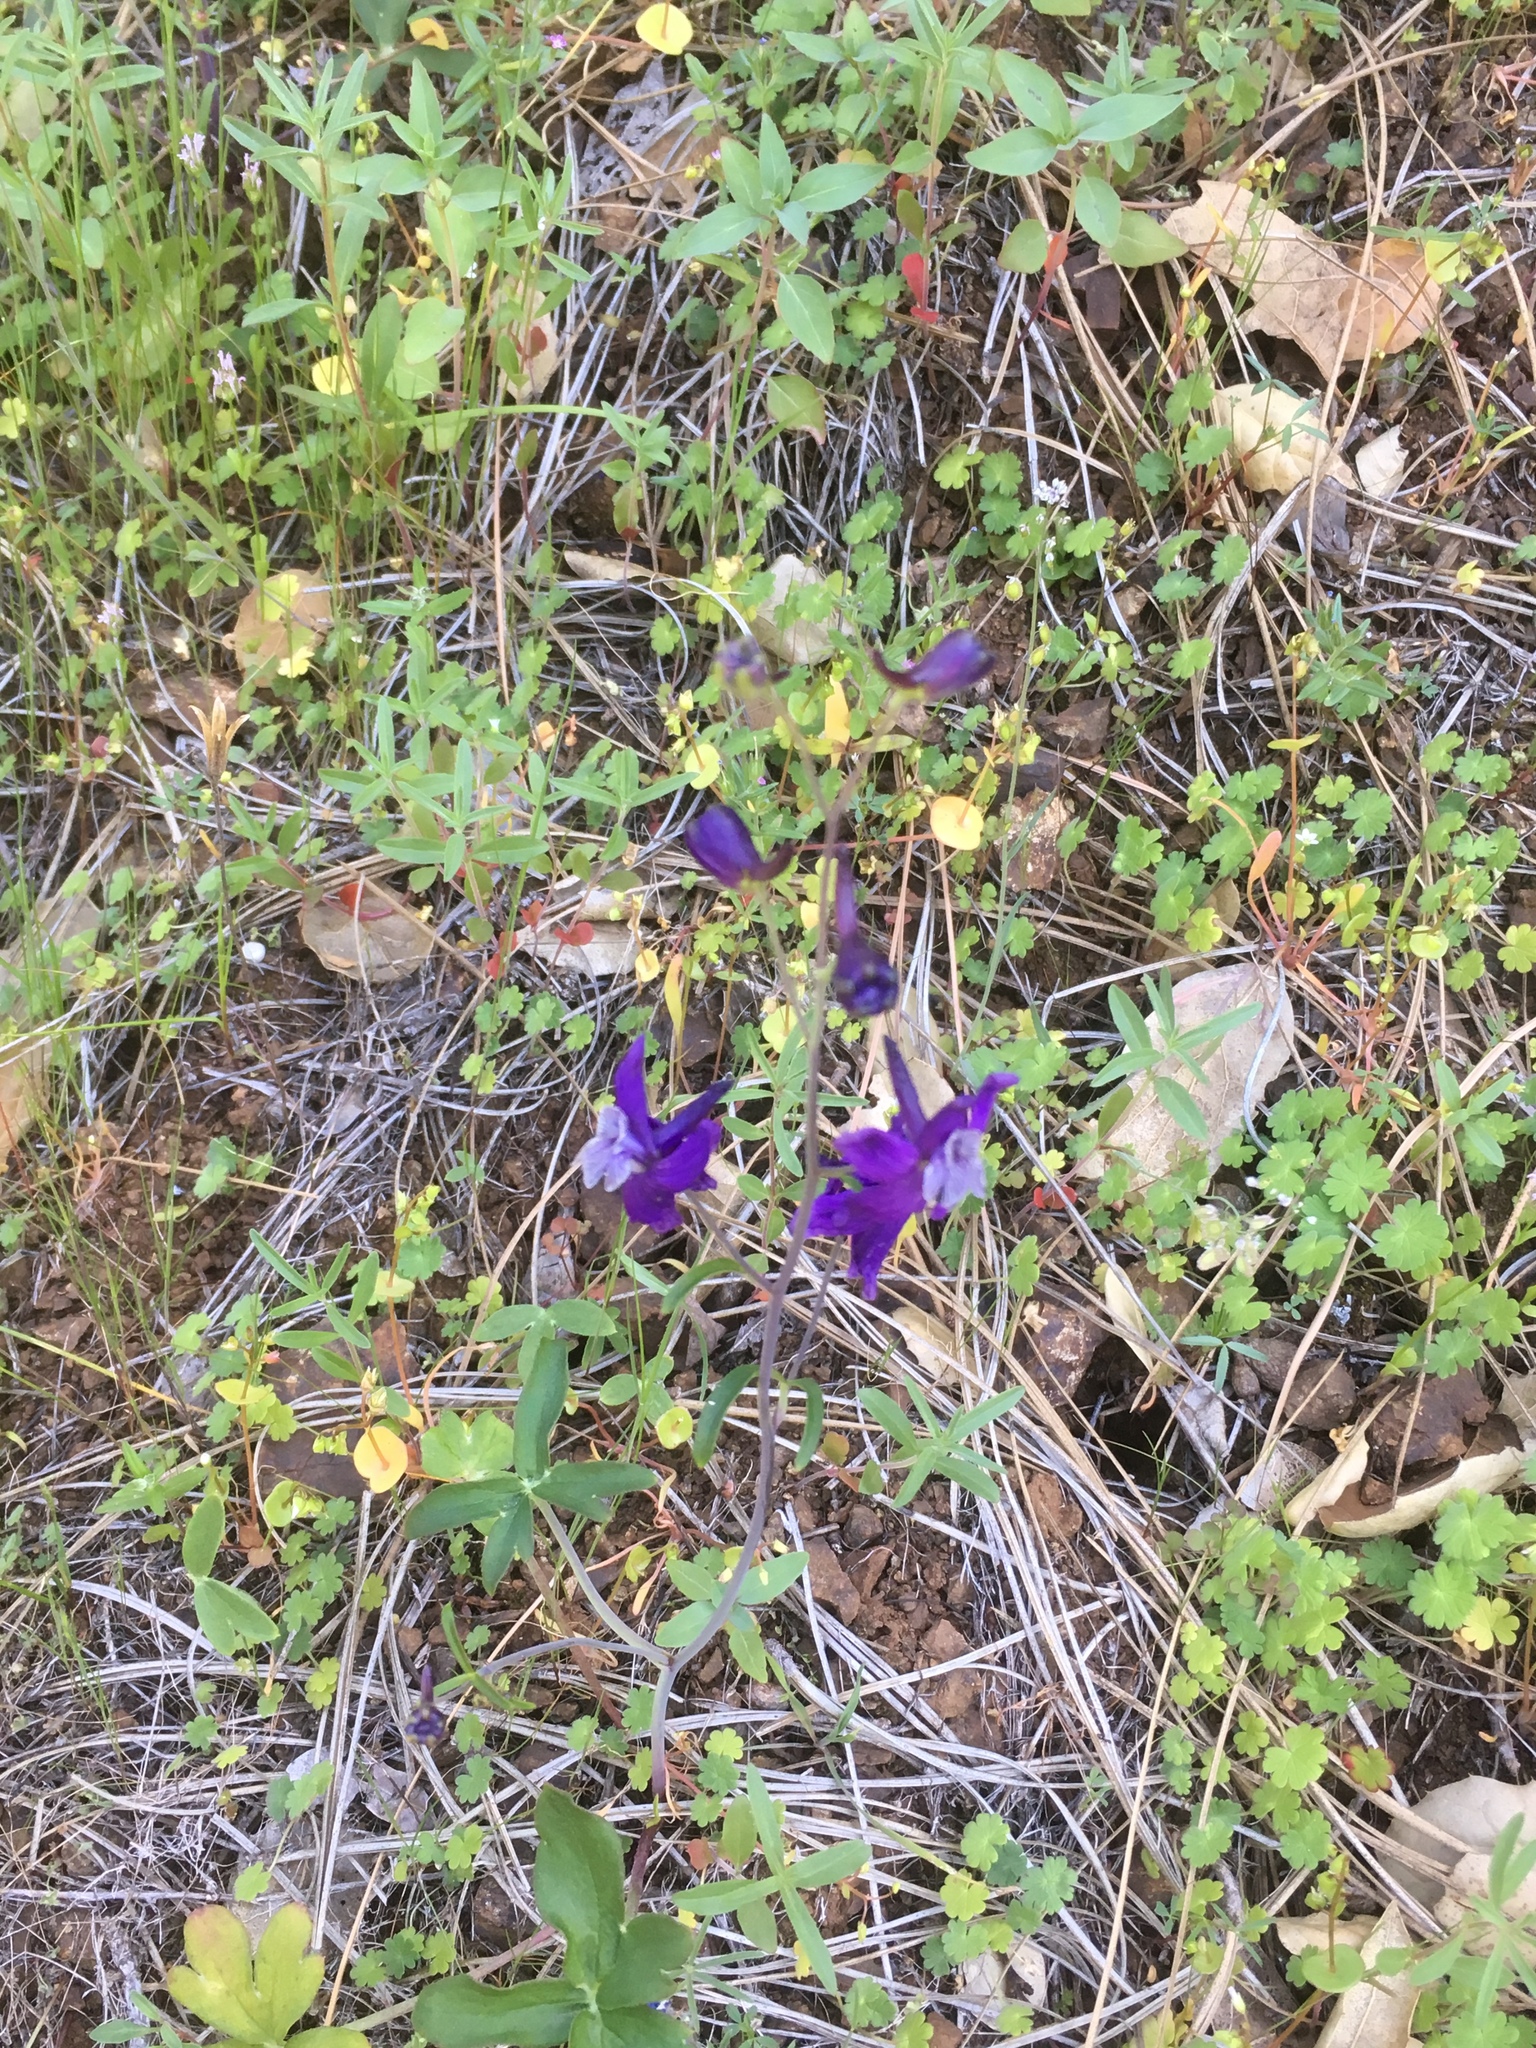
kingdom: Plantae
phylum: Tracheophyta
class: Magnoliopsida
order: Ranunculales
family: Ranunculaceae
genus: Delphinium
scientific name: Delphinium patens
